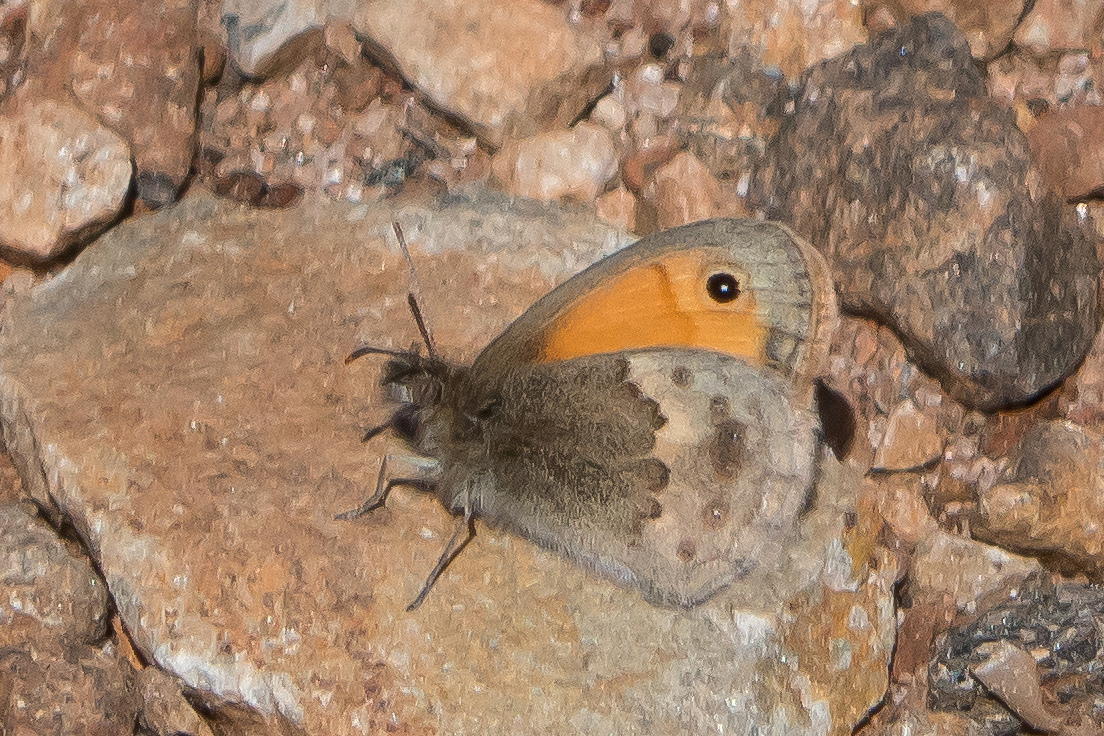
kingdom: Animalia
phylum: Arthropoda
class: Insecta
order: Lepidoptera
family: Nymphalidae
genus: Coenonympha
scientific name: Coenonympha pamphilus
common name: Small heath
